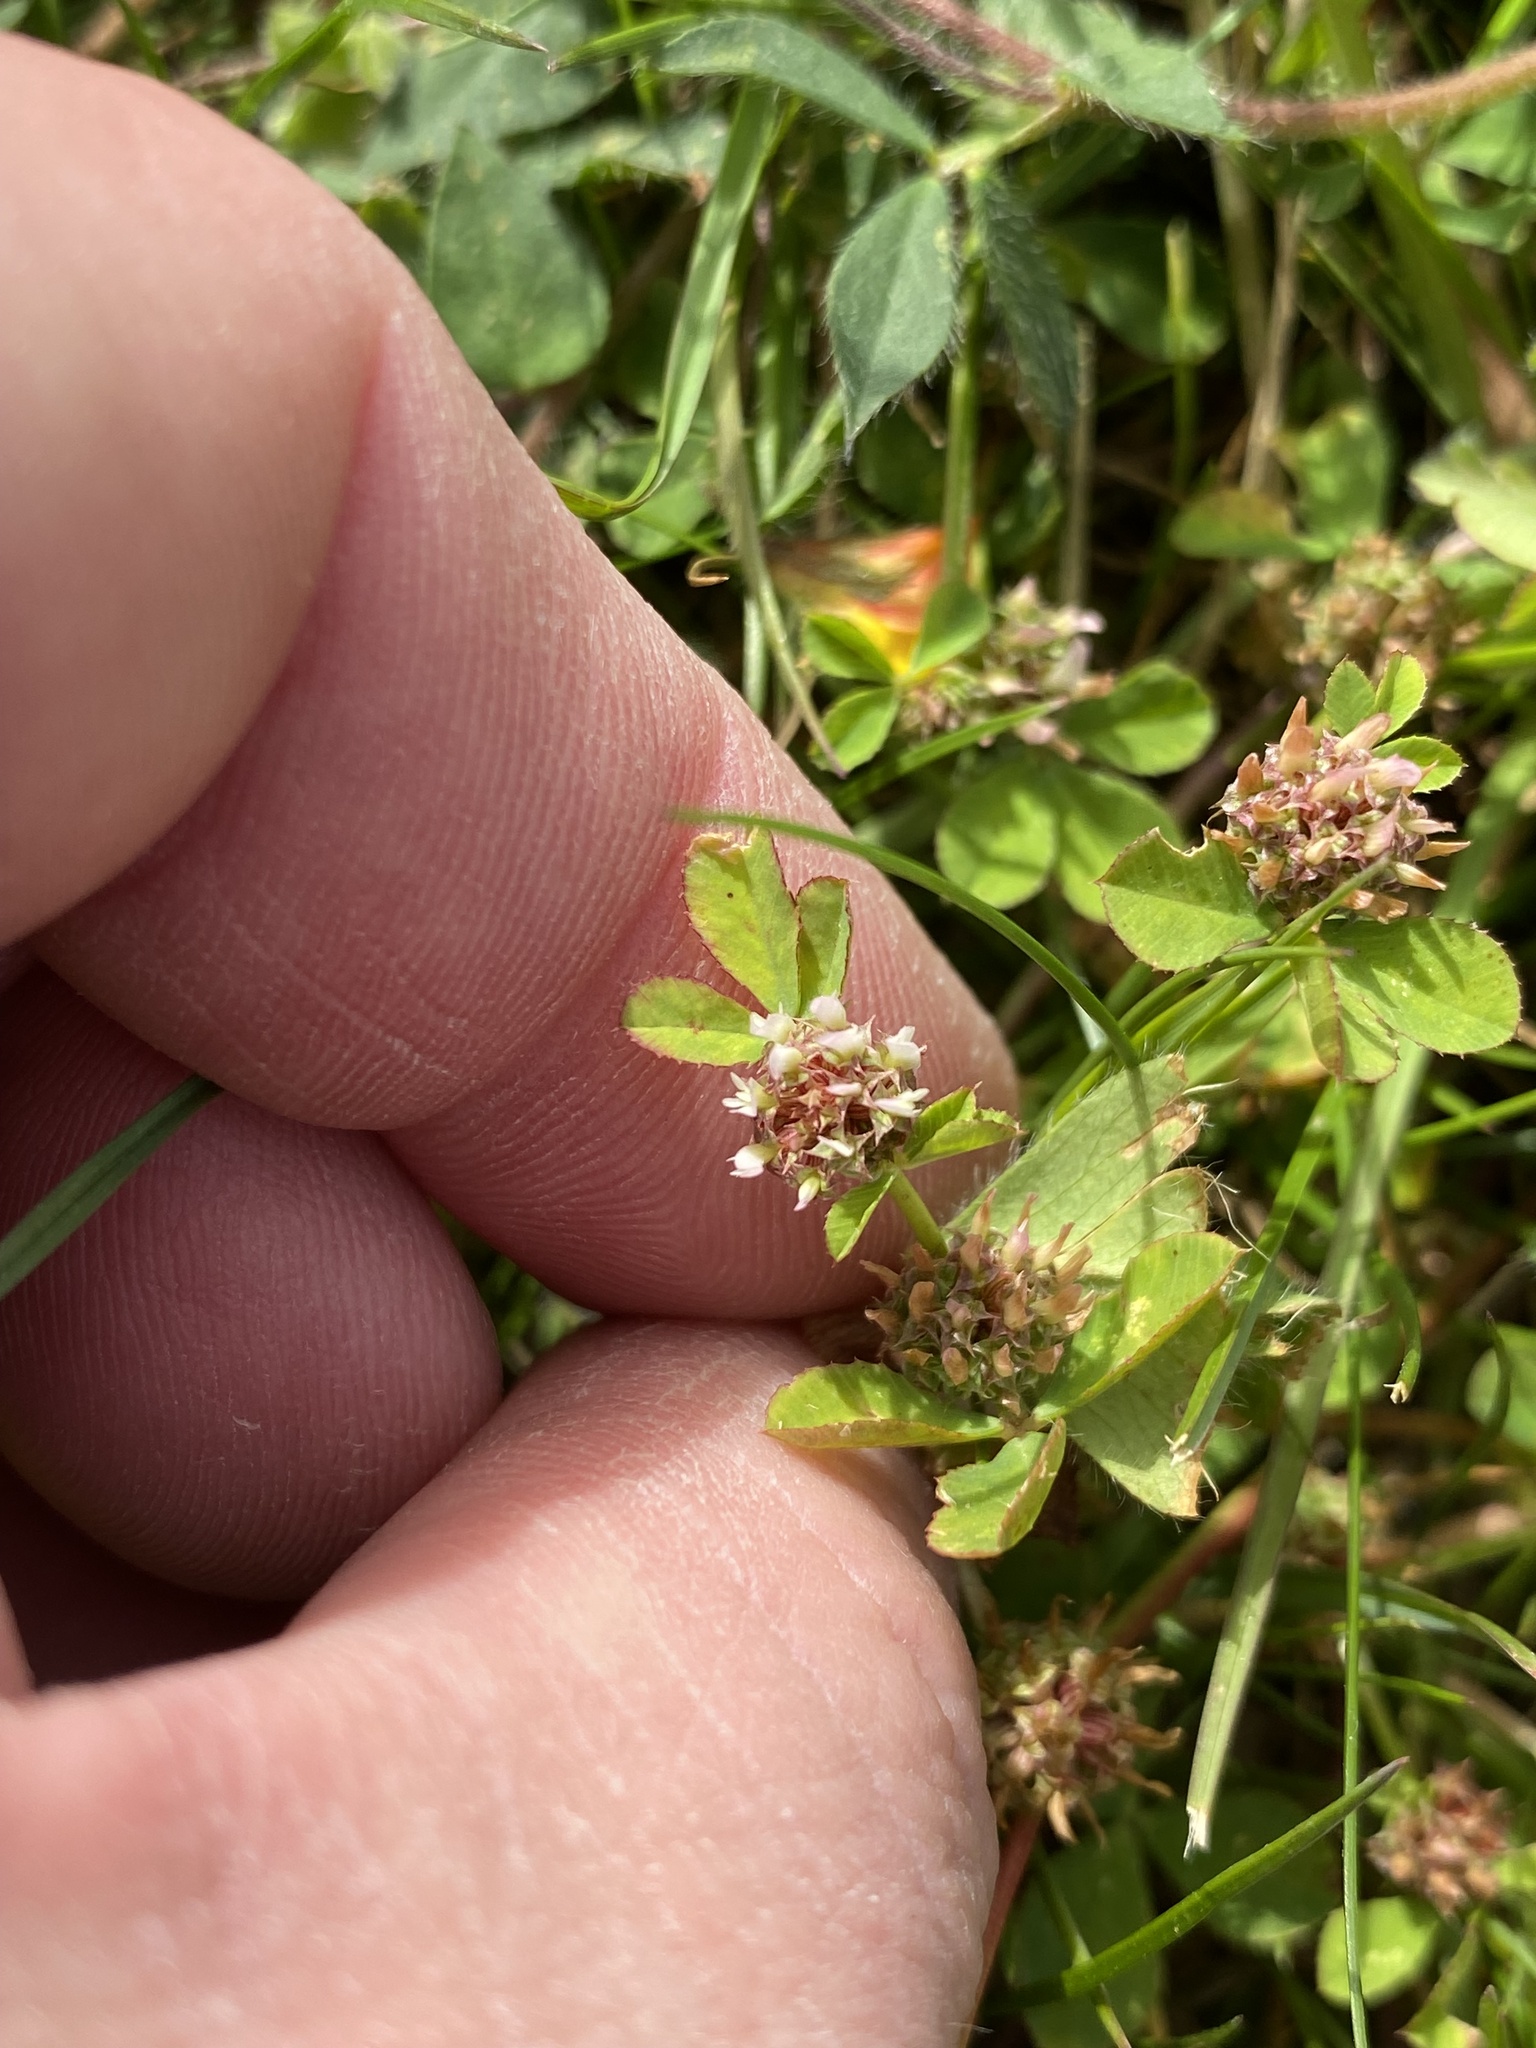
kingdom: Plantae
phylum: Tracheophyta
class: Magnoliopsida
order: Fabales
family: Fabaceae
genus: Trifolium
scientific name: Trifolium glomeratum
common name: Clustered clover
